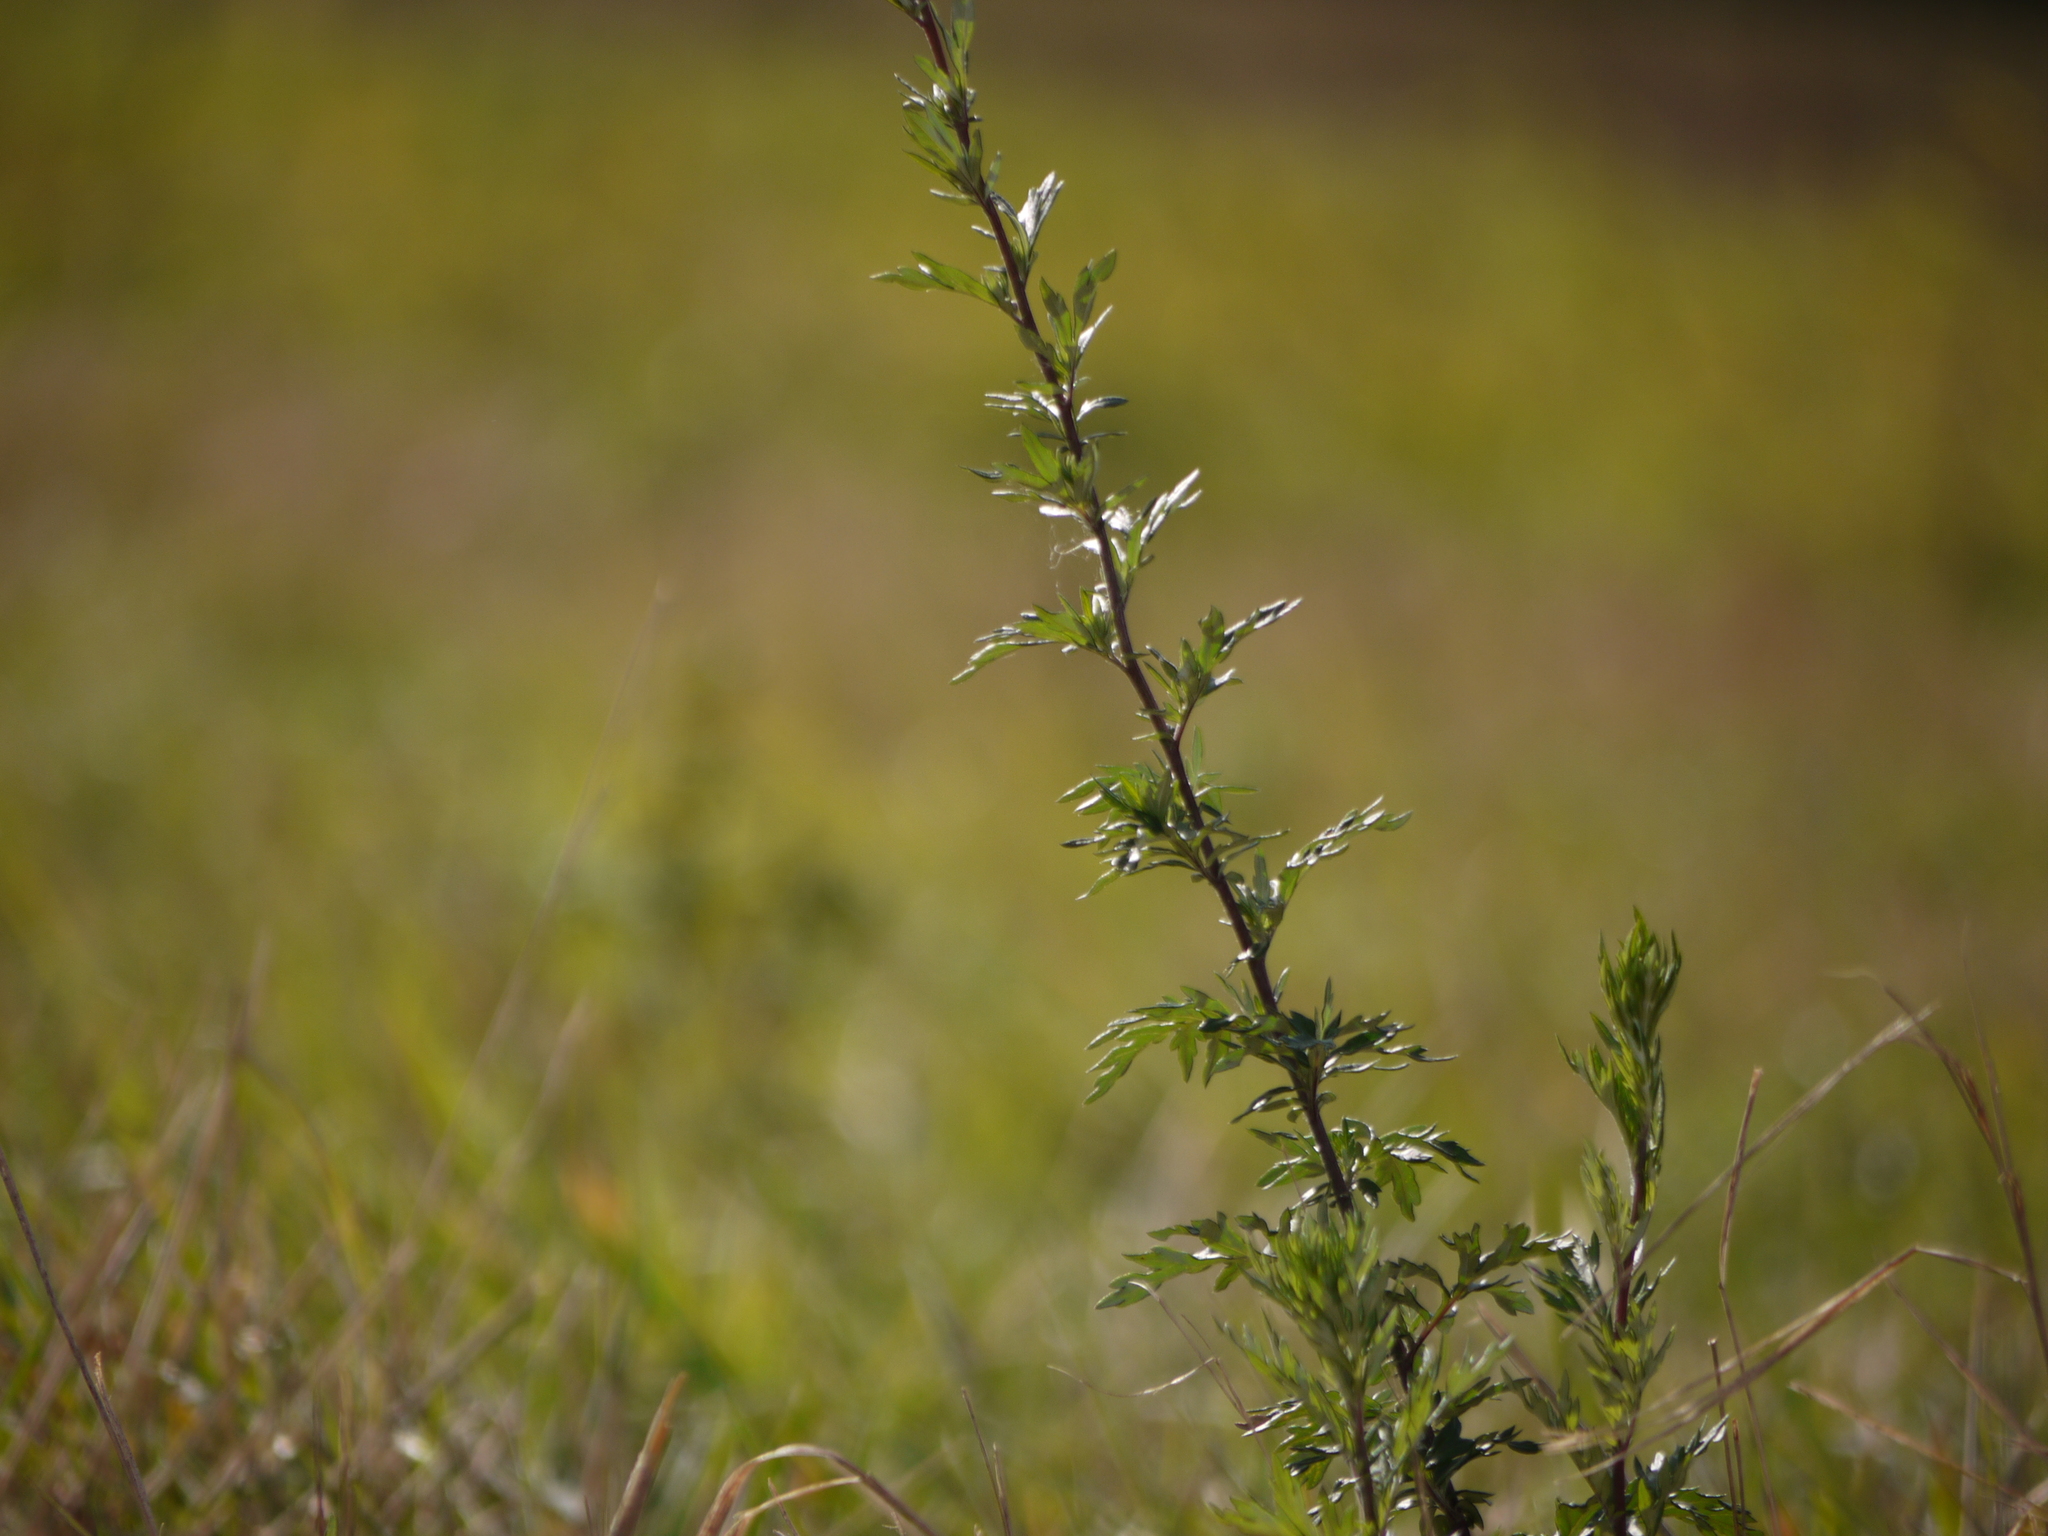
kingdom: Plantae
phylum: Tracheophyta
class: Magnoliopsida
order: Asterales
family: Asteraceae
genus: Artemisia
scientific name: Artemisia vulgaris
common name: Mugwort
